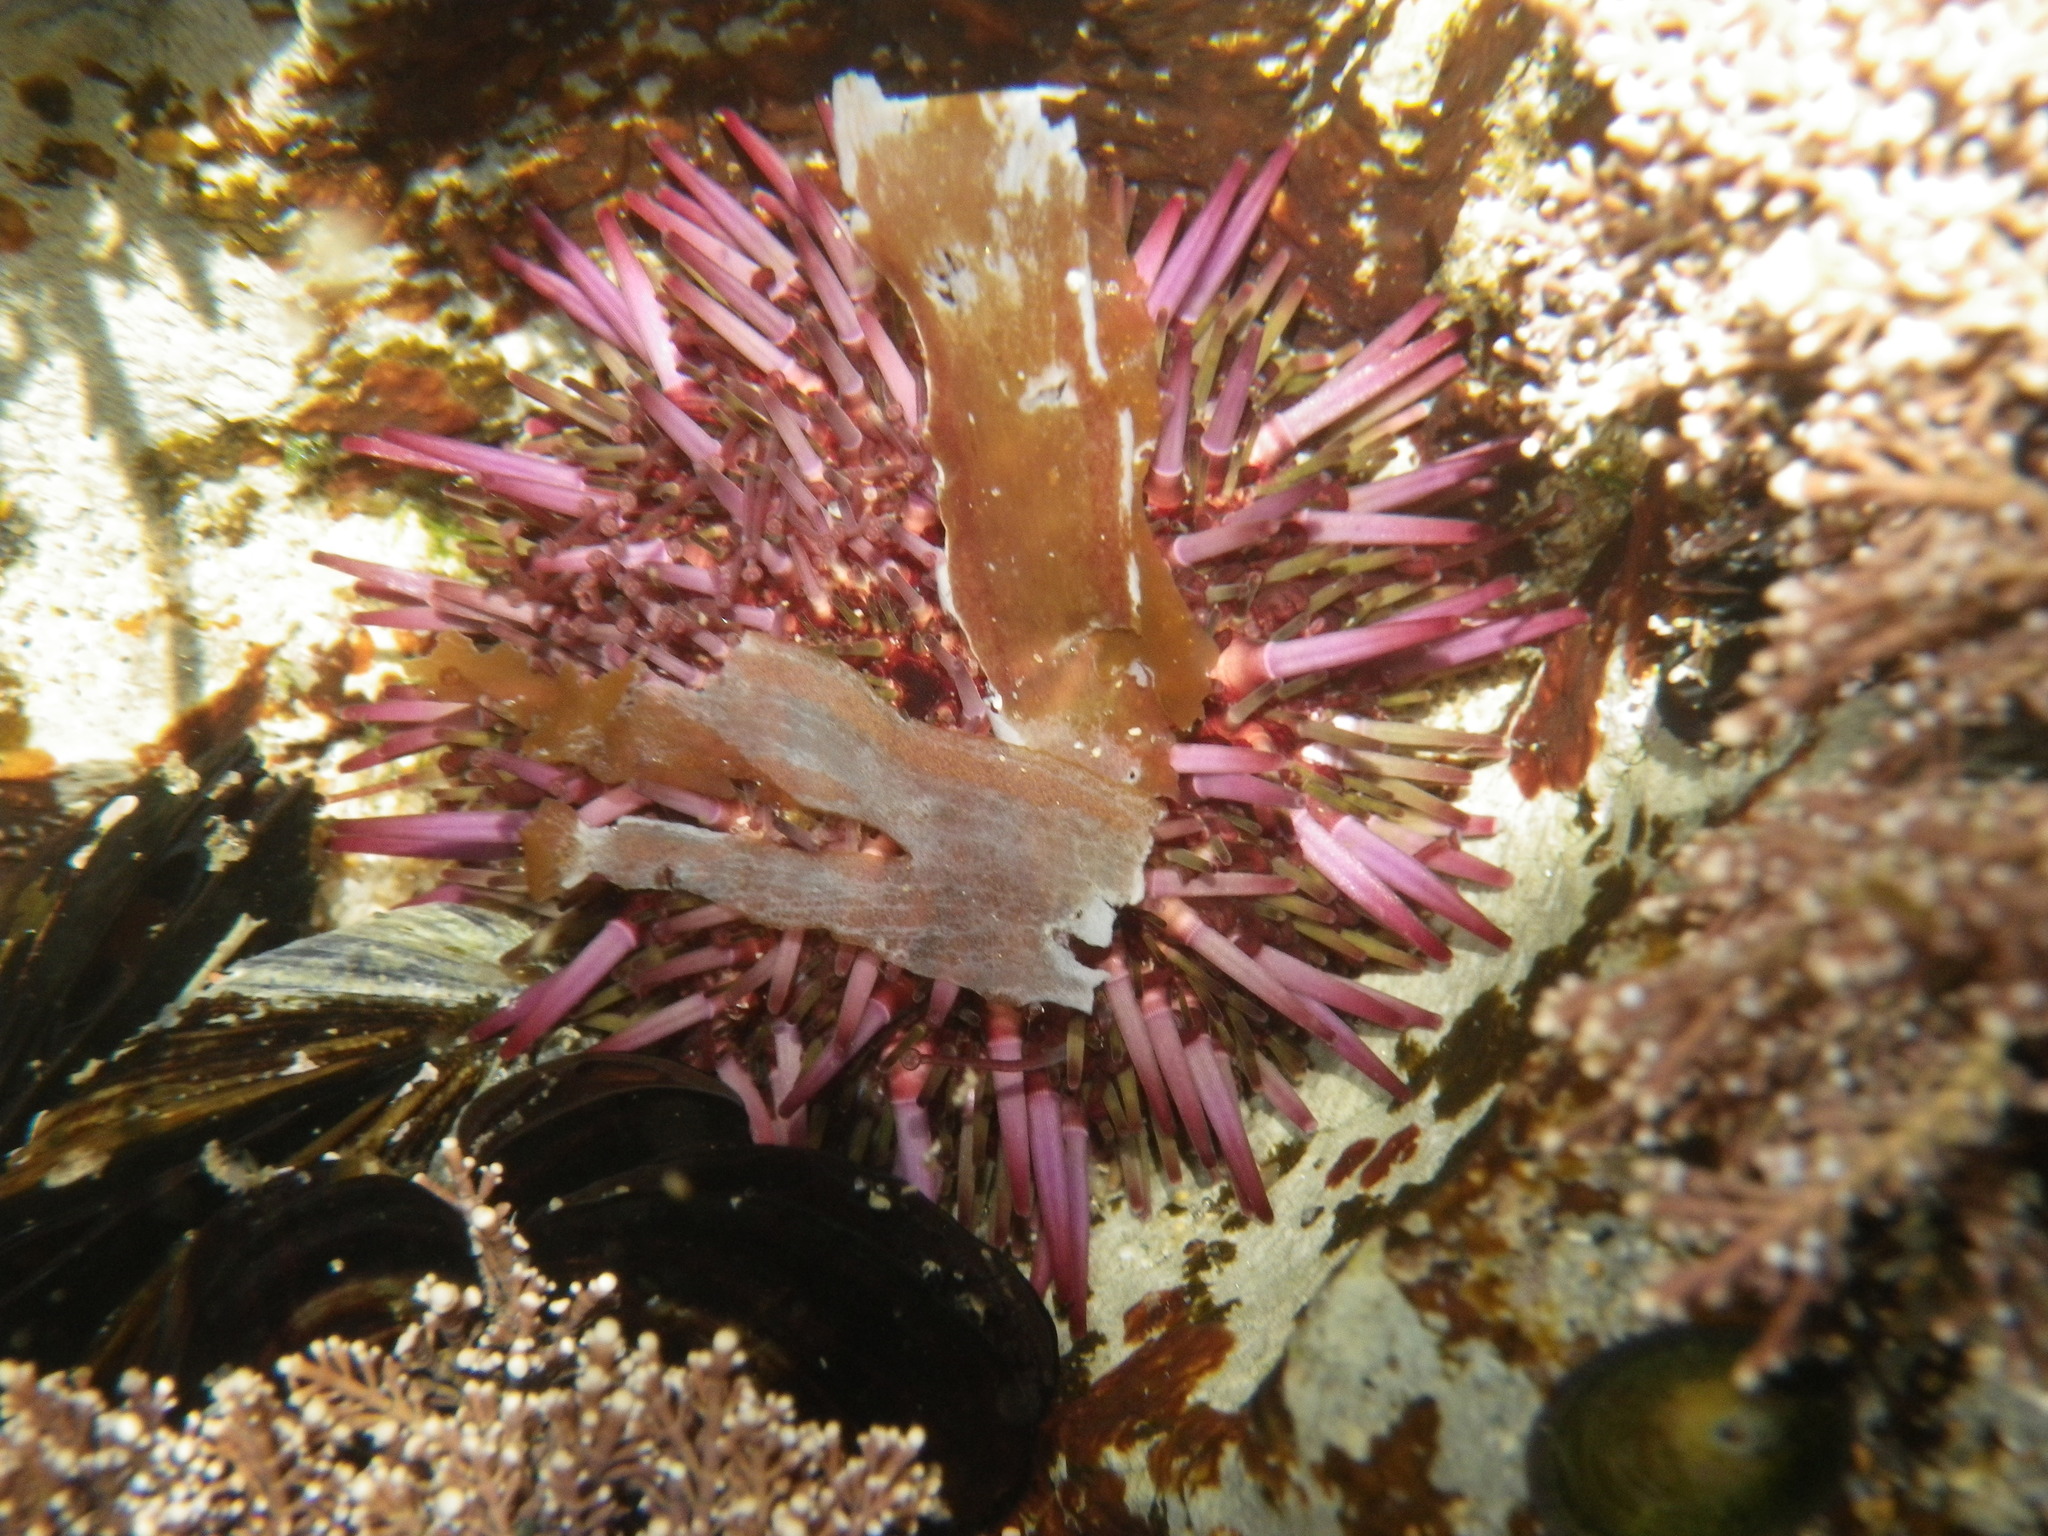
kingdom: Animalia
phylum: Echinodermata
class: Echinoidea
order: Camarodonta
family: Strongylocentrotidae
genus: Strongylocentrotus
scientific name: Strongylocentrotus purpuratus
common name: Purple sea urchin
